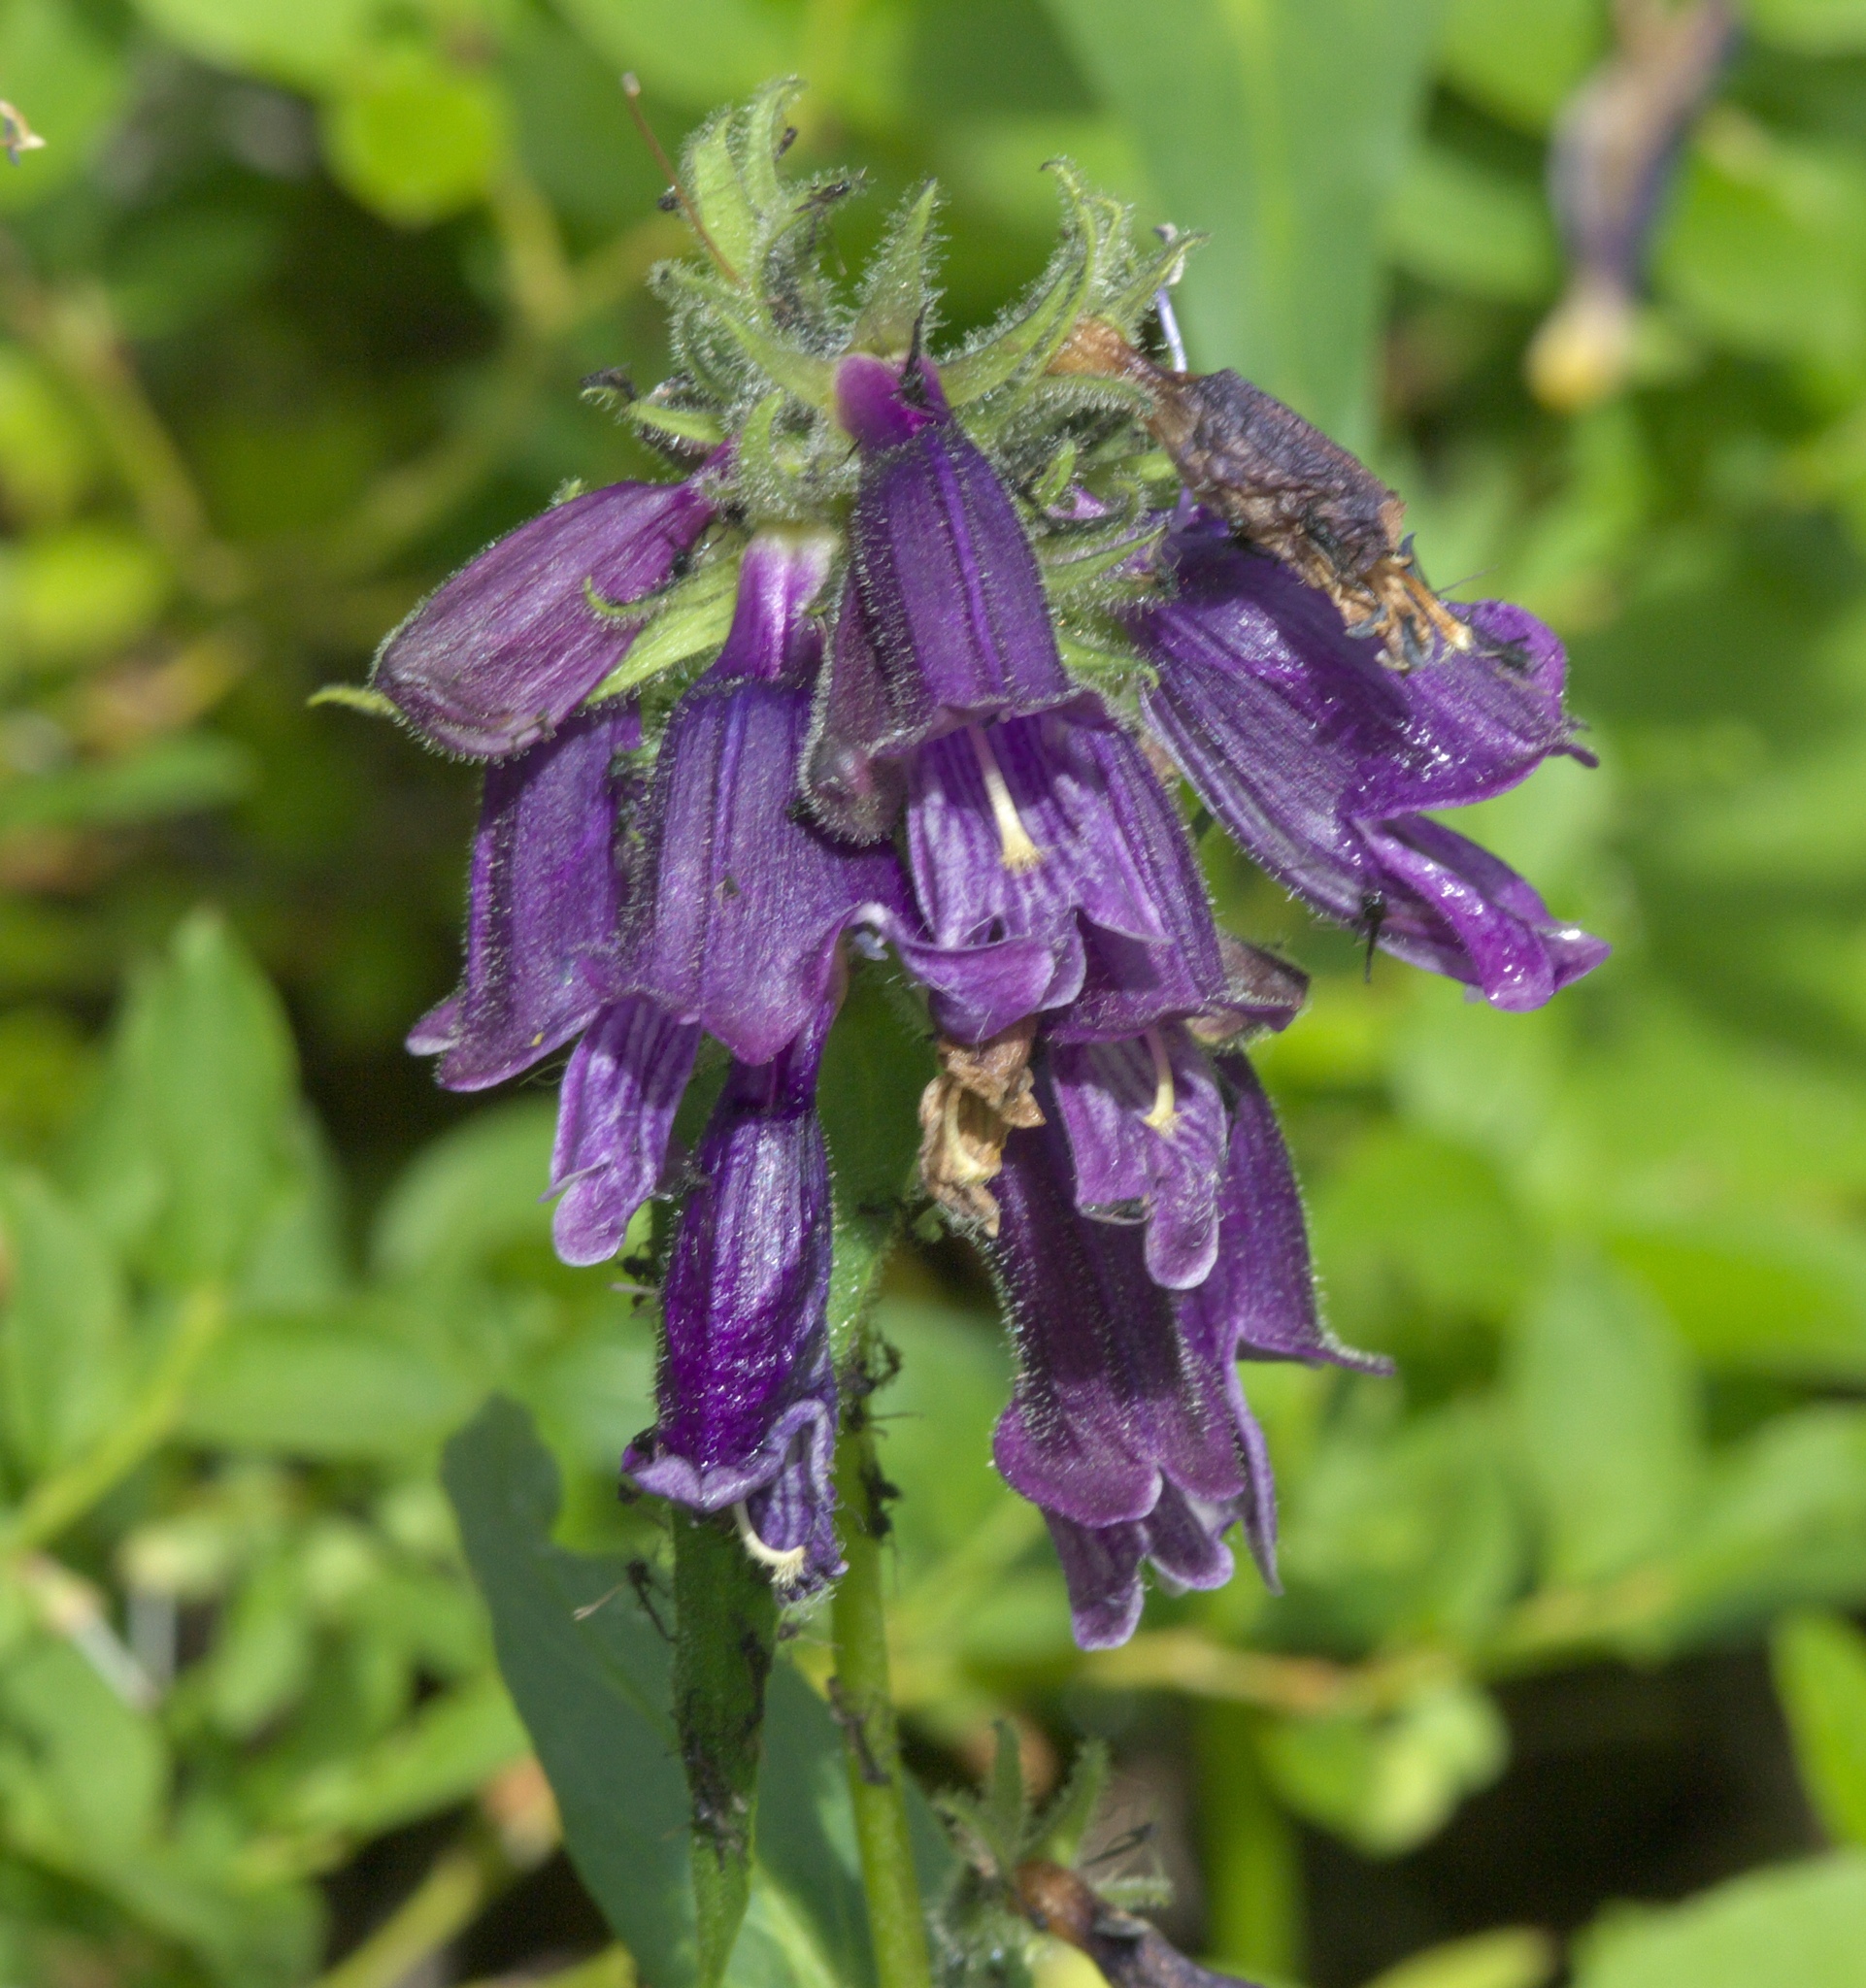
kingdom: Plantae
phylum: Tracheophyta
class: Magnoliopsida
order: Lamiales
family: Plantaginaceae
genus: Penstemon
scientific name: Penstemon whippleanus
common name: Whipple's penstemon
